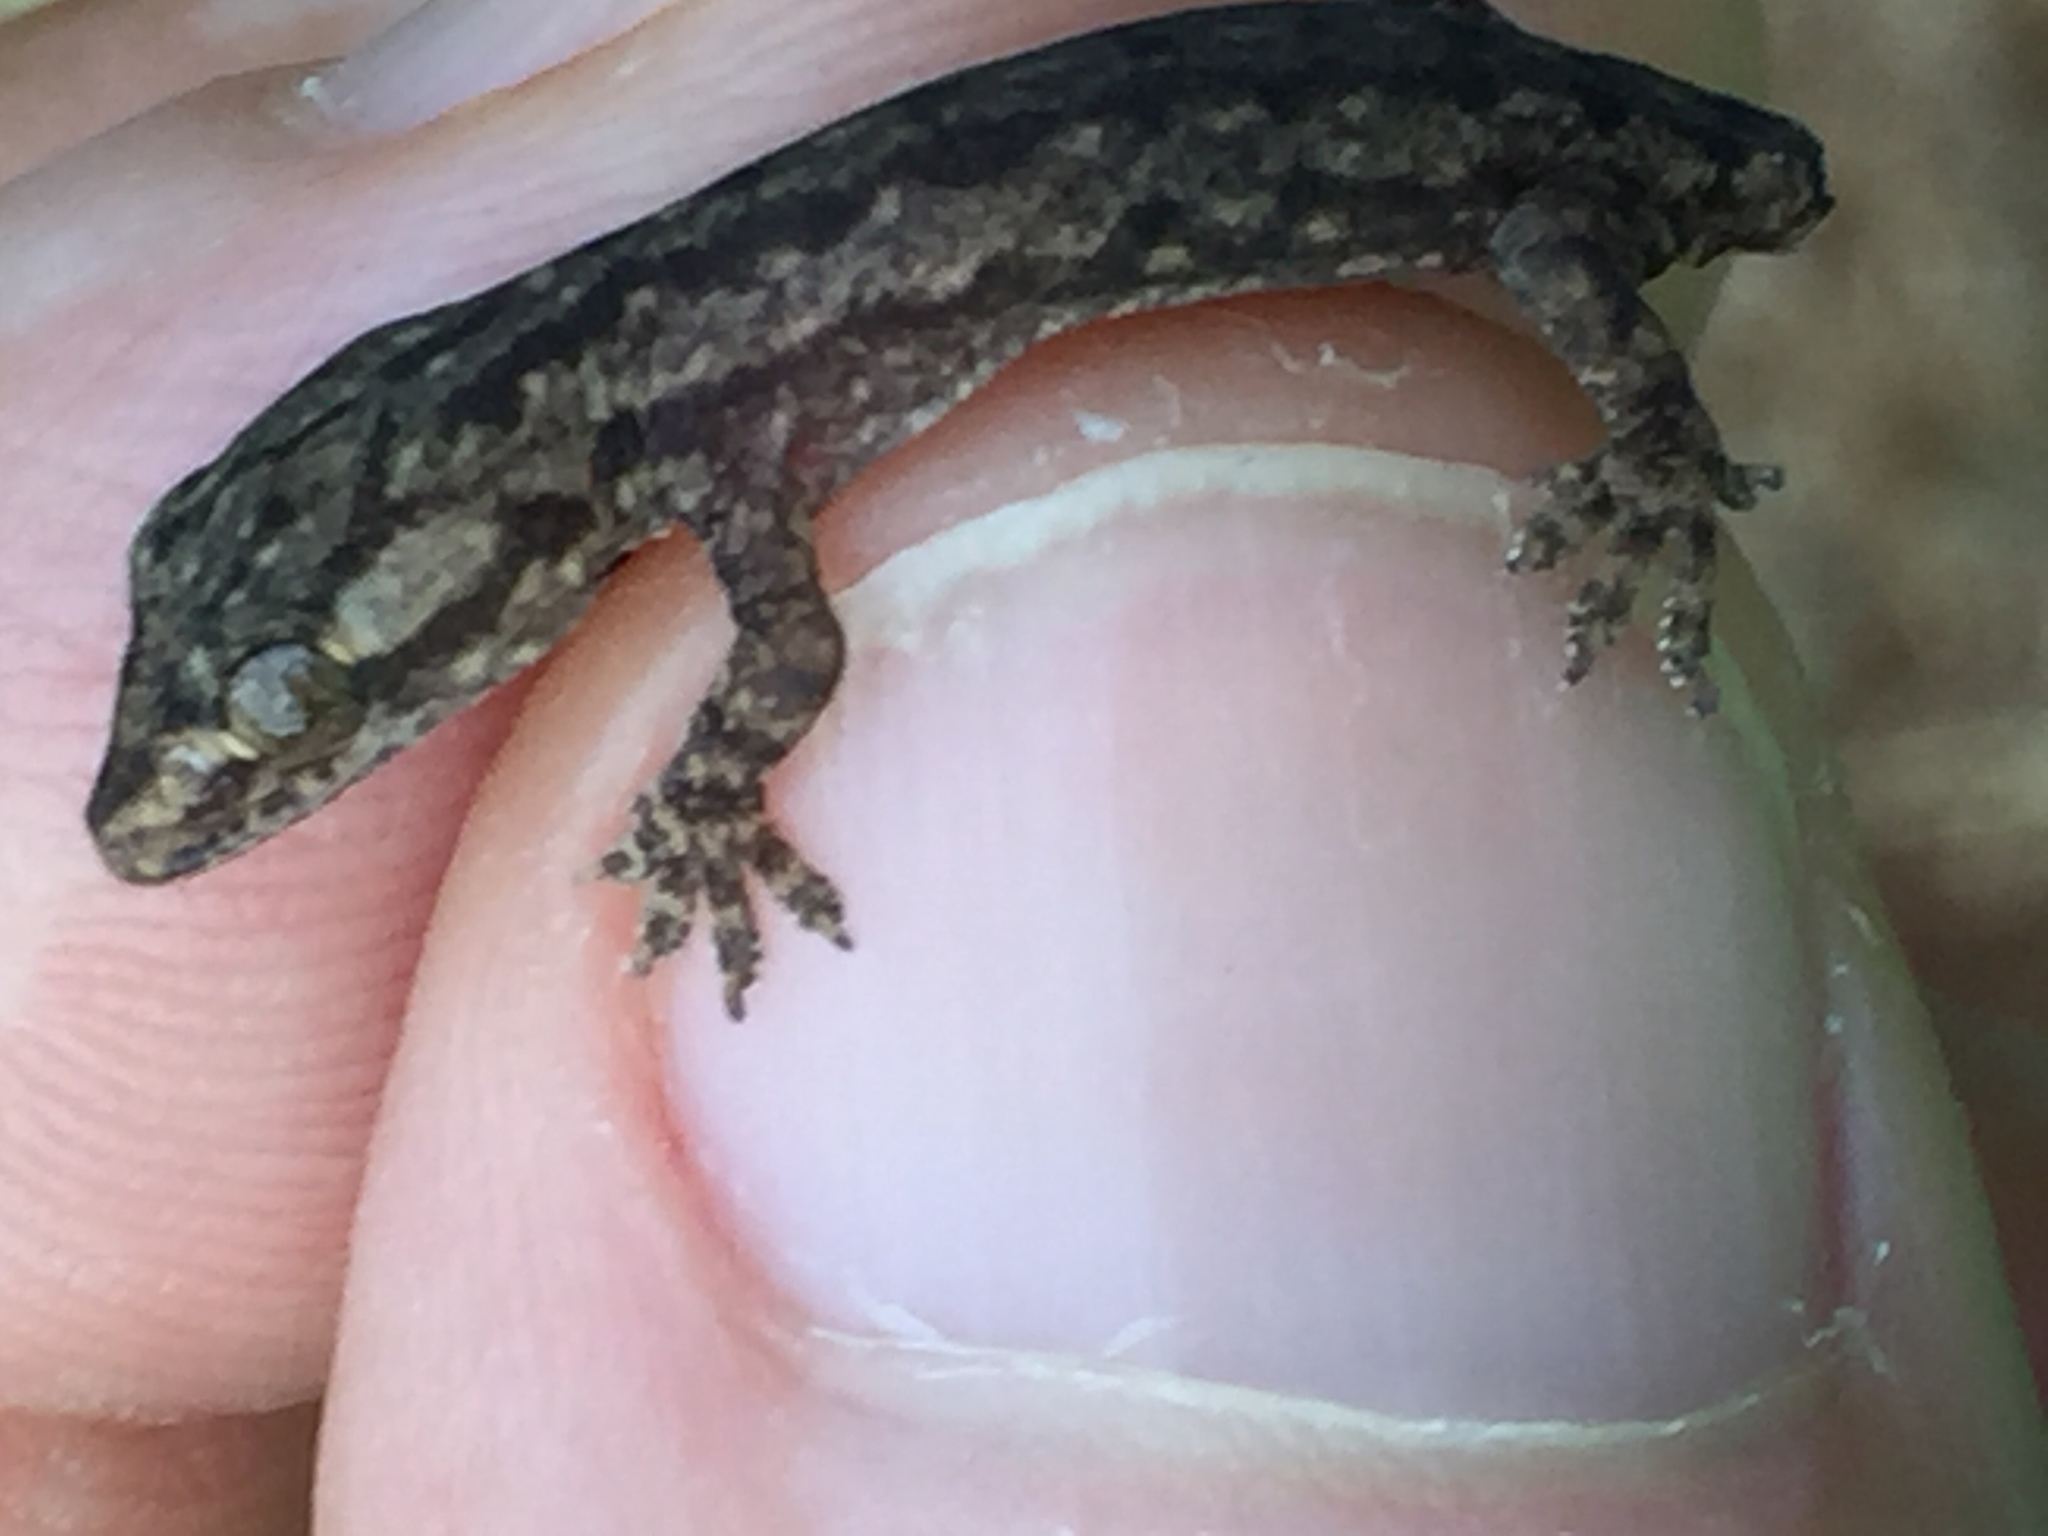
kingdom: Animalia
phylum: Chordata
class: Squamata
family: Gekkonidae
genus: Hemidactylus
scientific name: Hemidactylus frenatus
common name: Common house gecko
